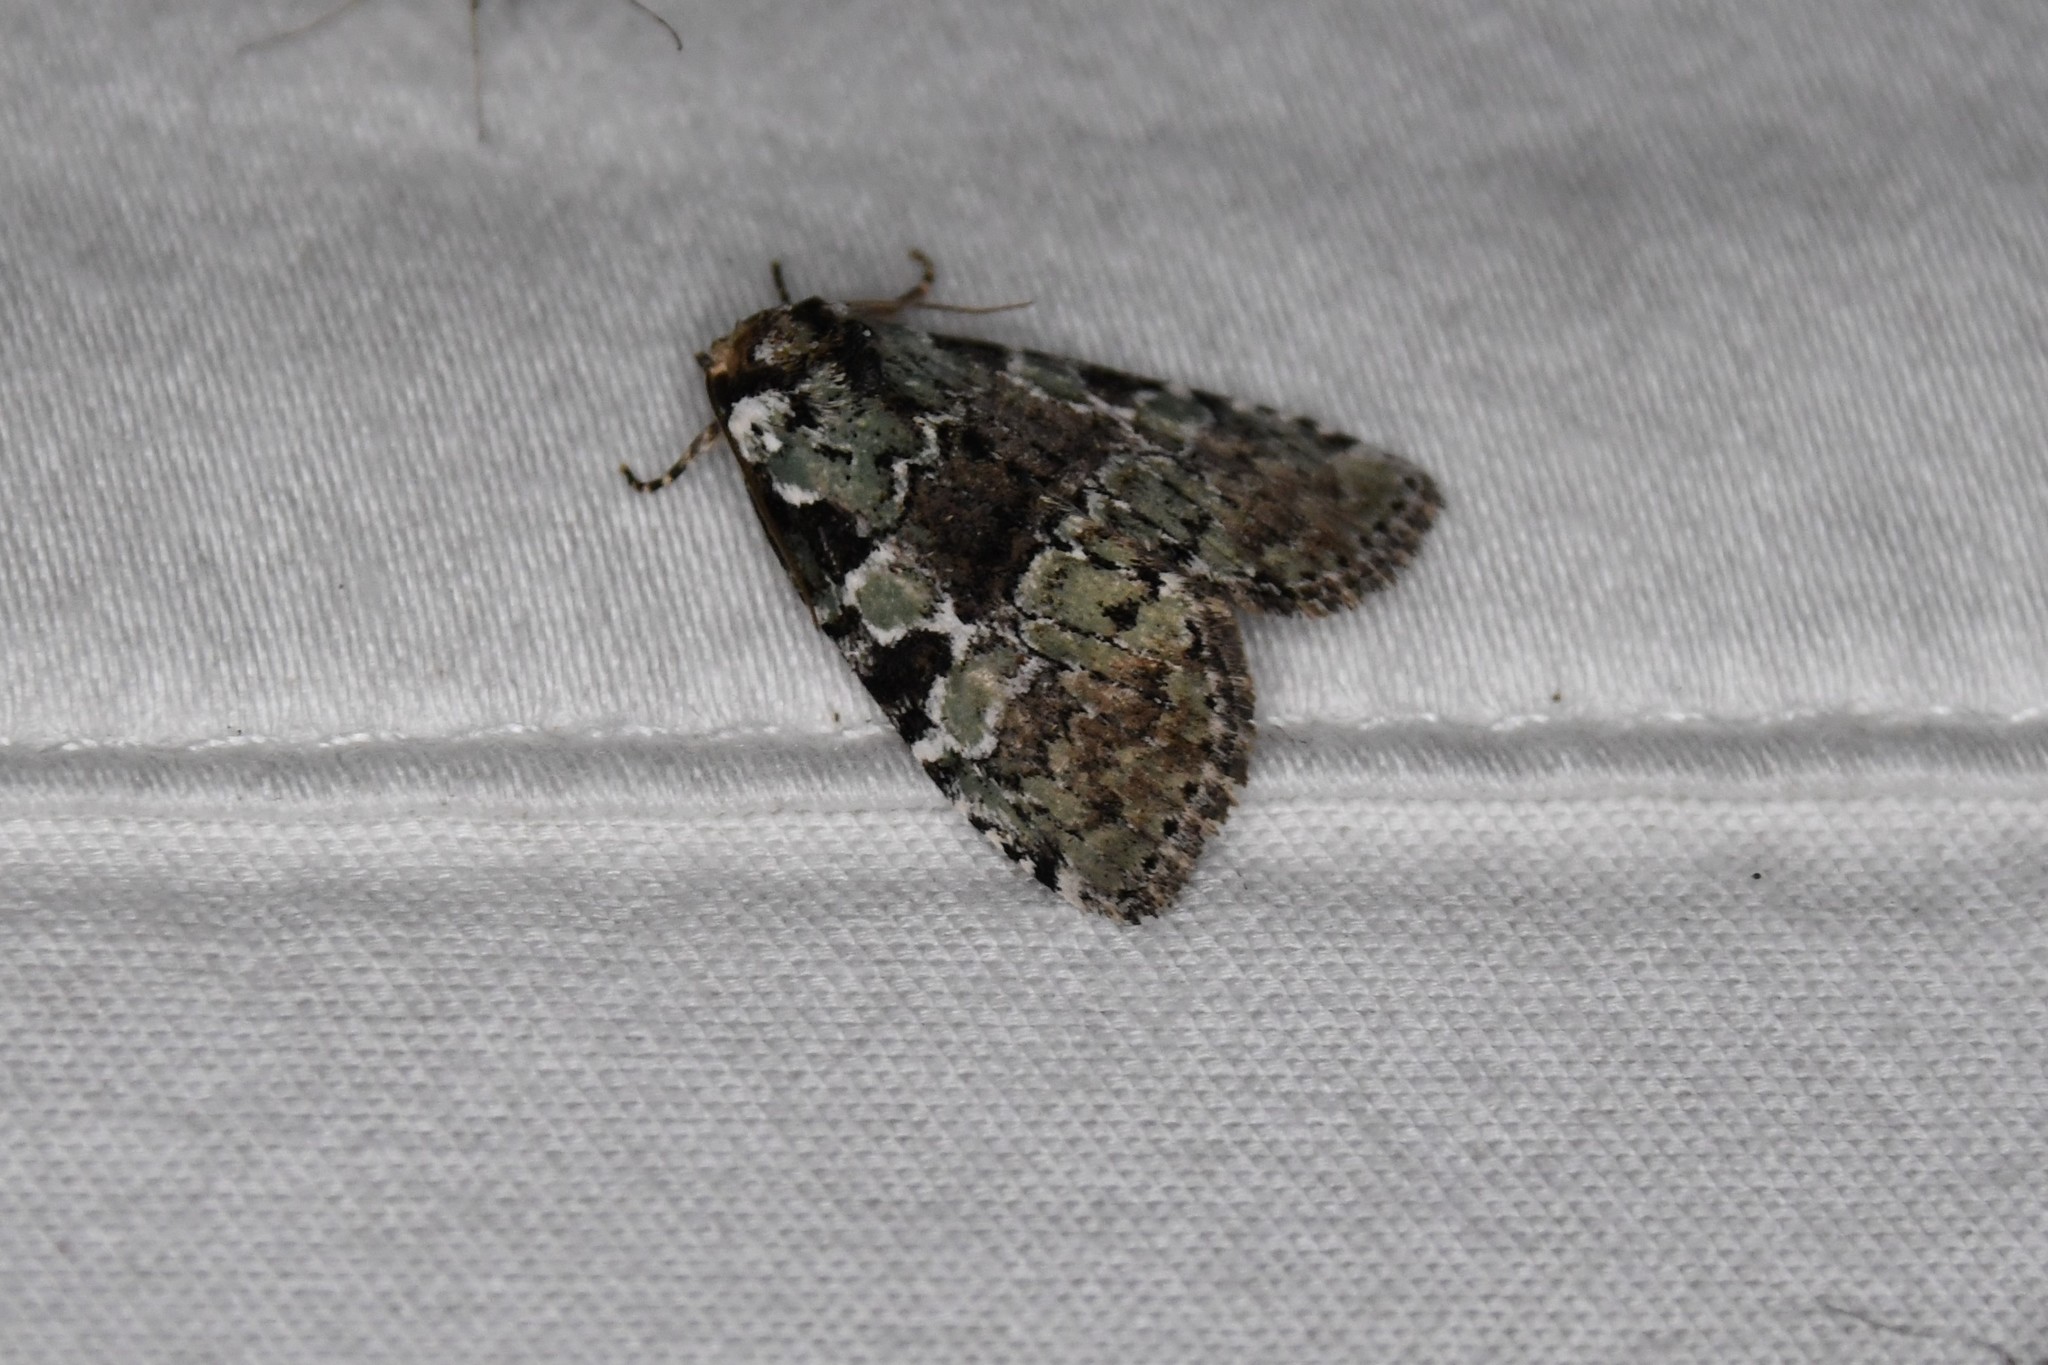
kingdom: Animalia
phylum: Arthropoda
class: Insecta
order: Lepidoptera
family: Noctuidae
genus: Leuconycta
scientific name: Leuconycta lepidula
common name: Marbled-green leuconycta moth
